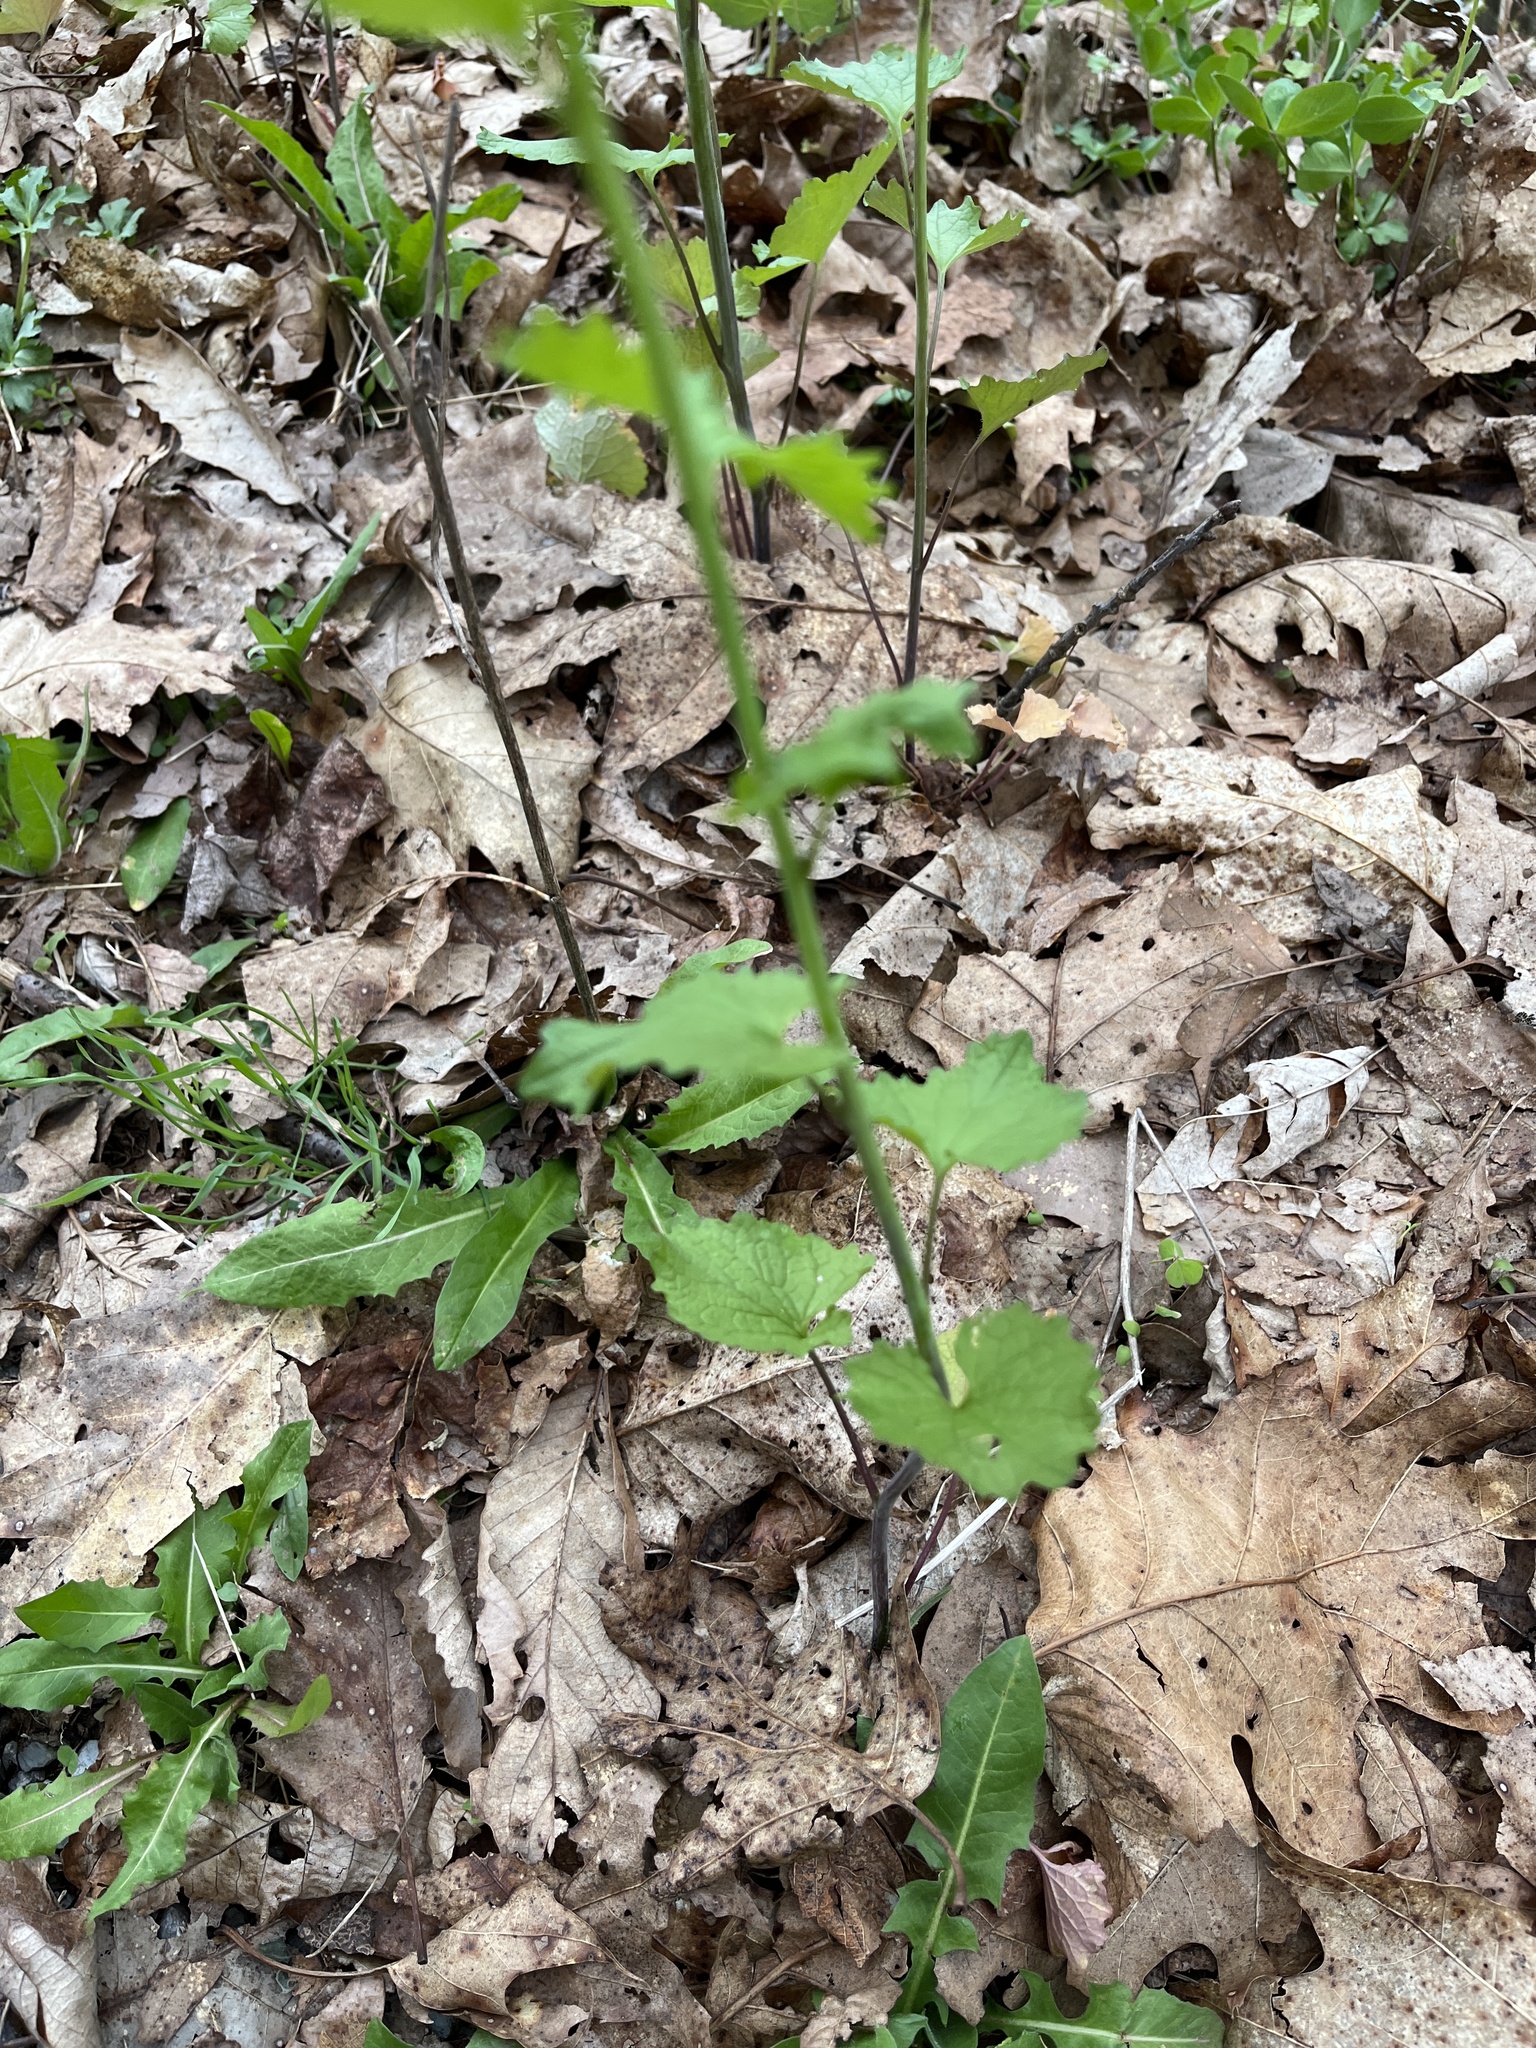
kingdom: Plantae
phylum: Tracheophyta
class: Magnoliopsida
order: Brassicales
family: Brassicaceae
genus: Alliaria
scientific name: Alliaria petiolata
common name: Garlic mustard
